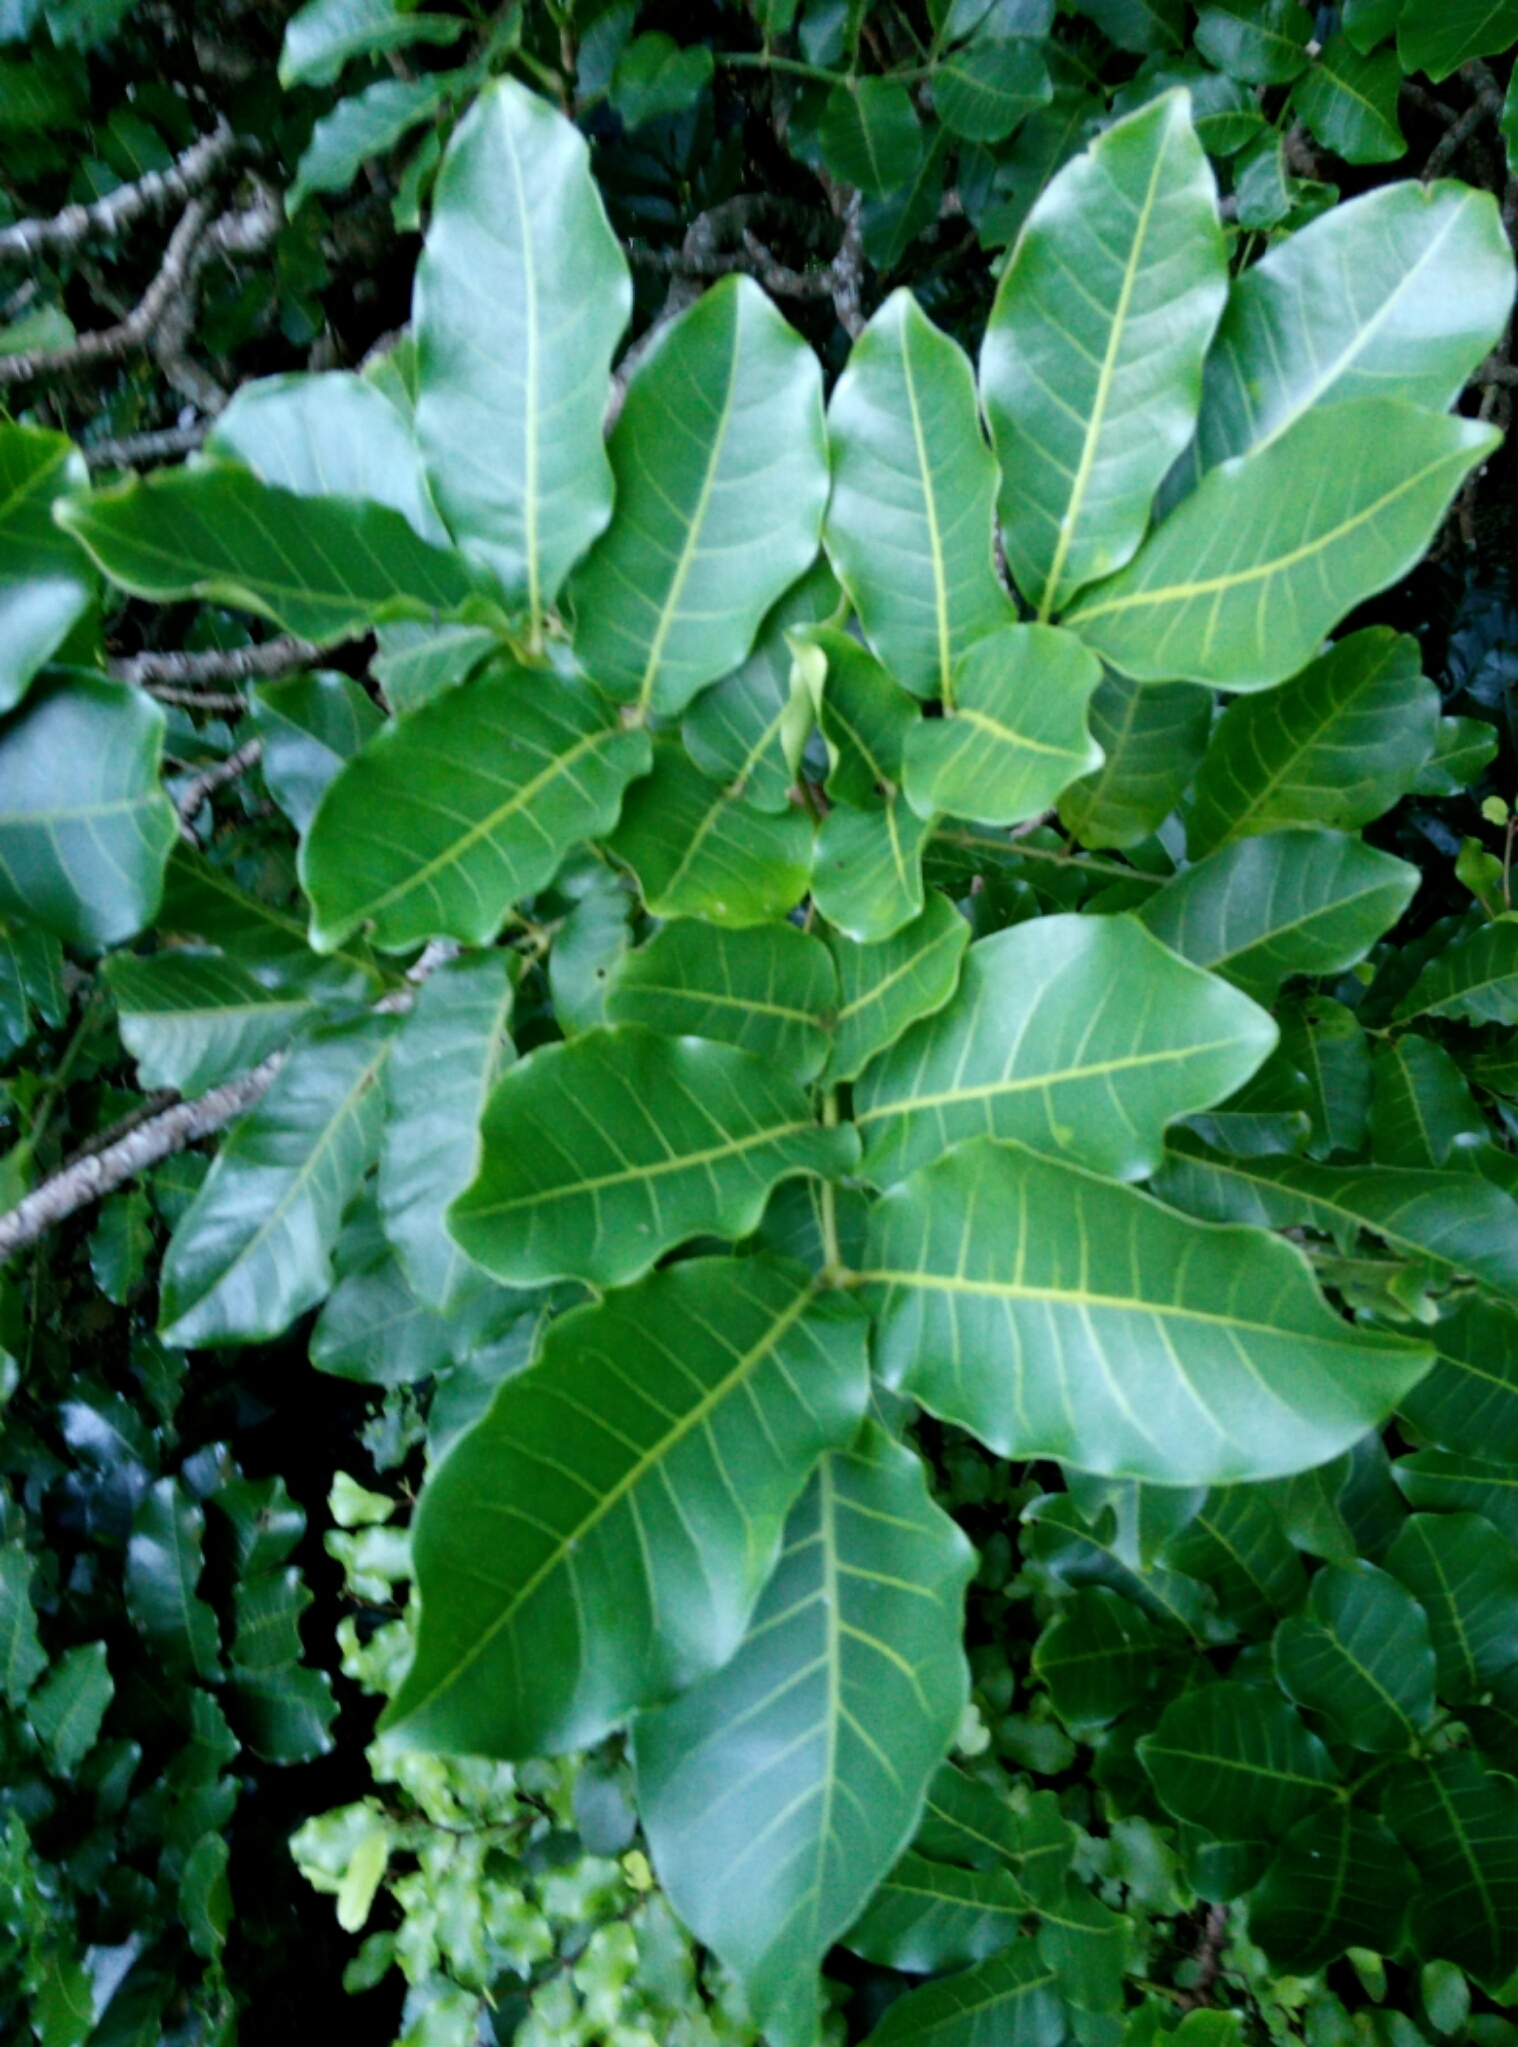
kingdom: Plantae
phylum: Tracheophyta
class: Magnoliopsida
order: Sapindales
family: Meliaceae
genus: Didymocheton
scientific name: Didymocheton spectabilis
